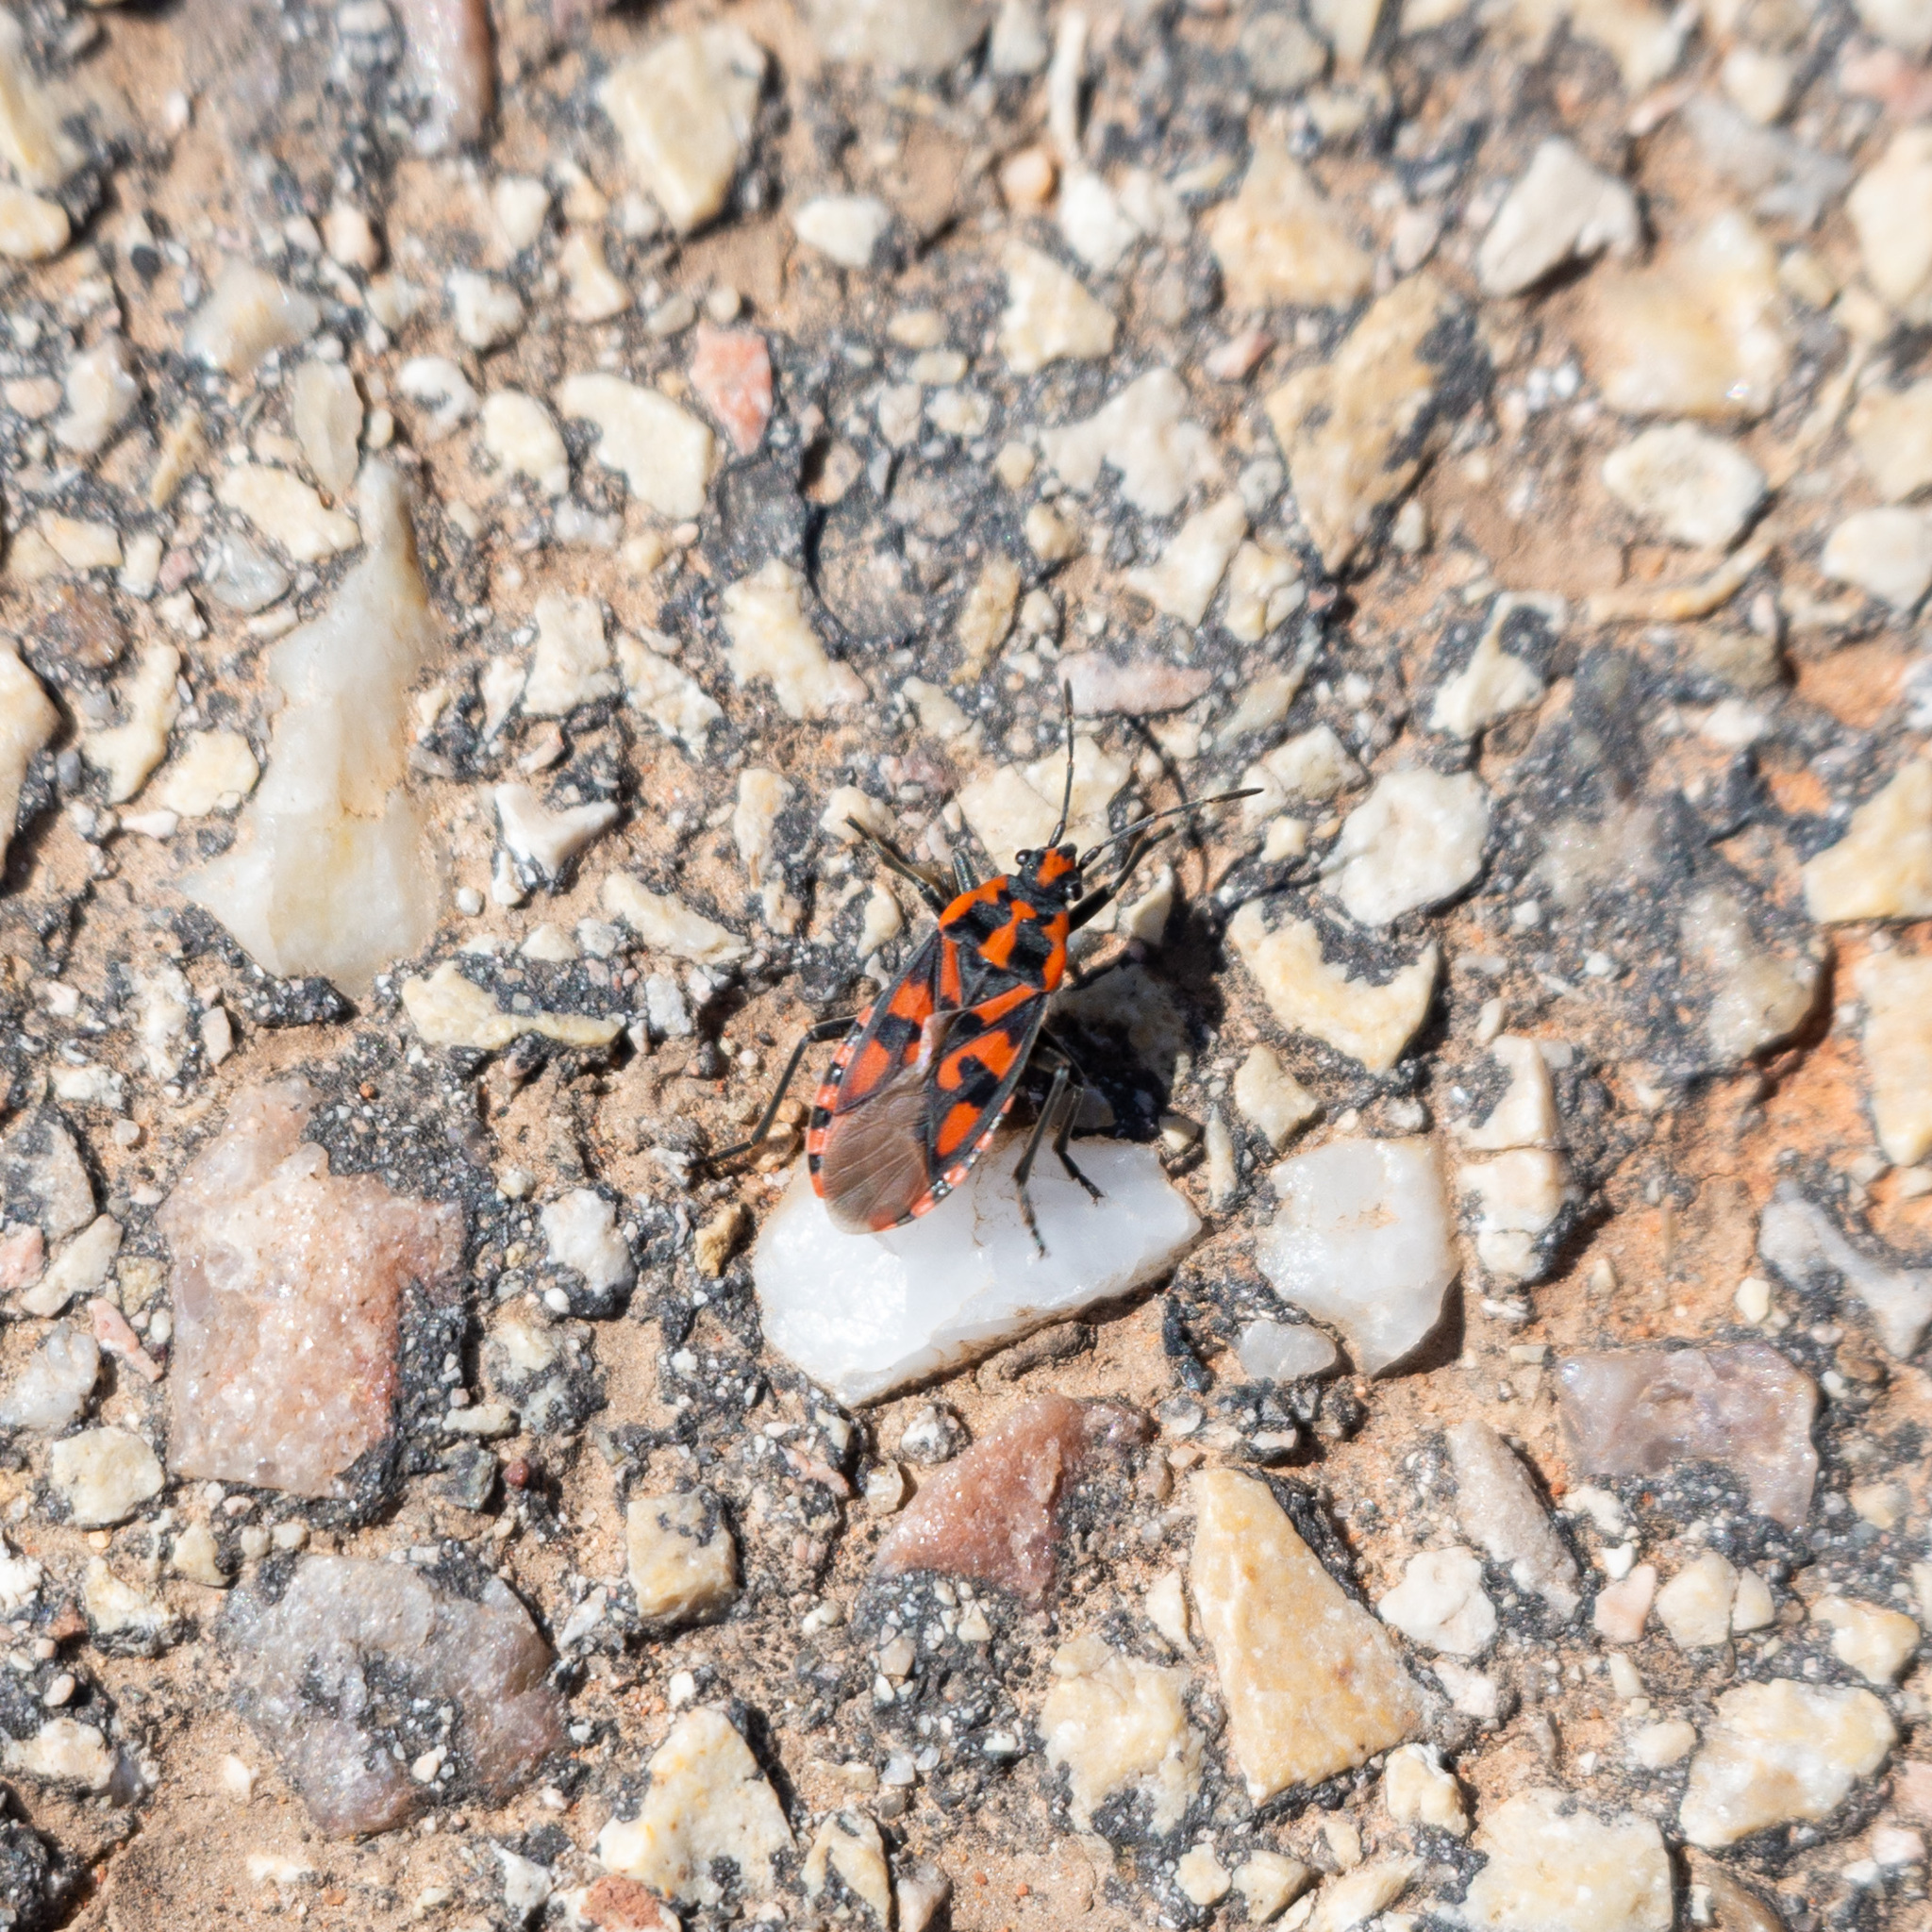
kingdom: Animalia
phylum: Arthropoda
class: Insecta
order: Hemiptera
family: Lygaeidae
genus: Spilostethus
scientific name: Spilostethus saxatilis
